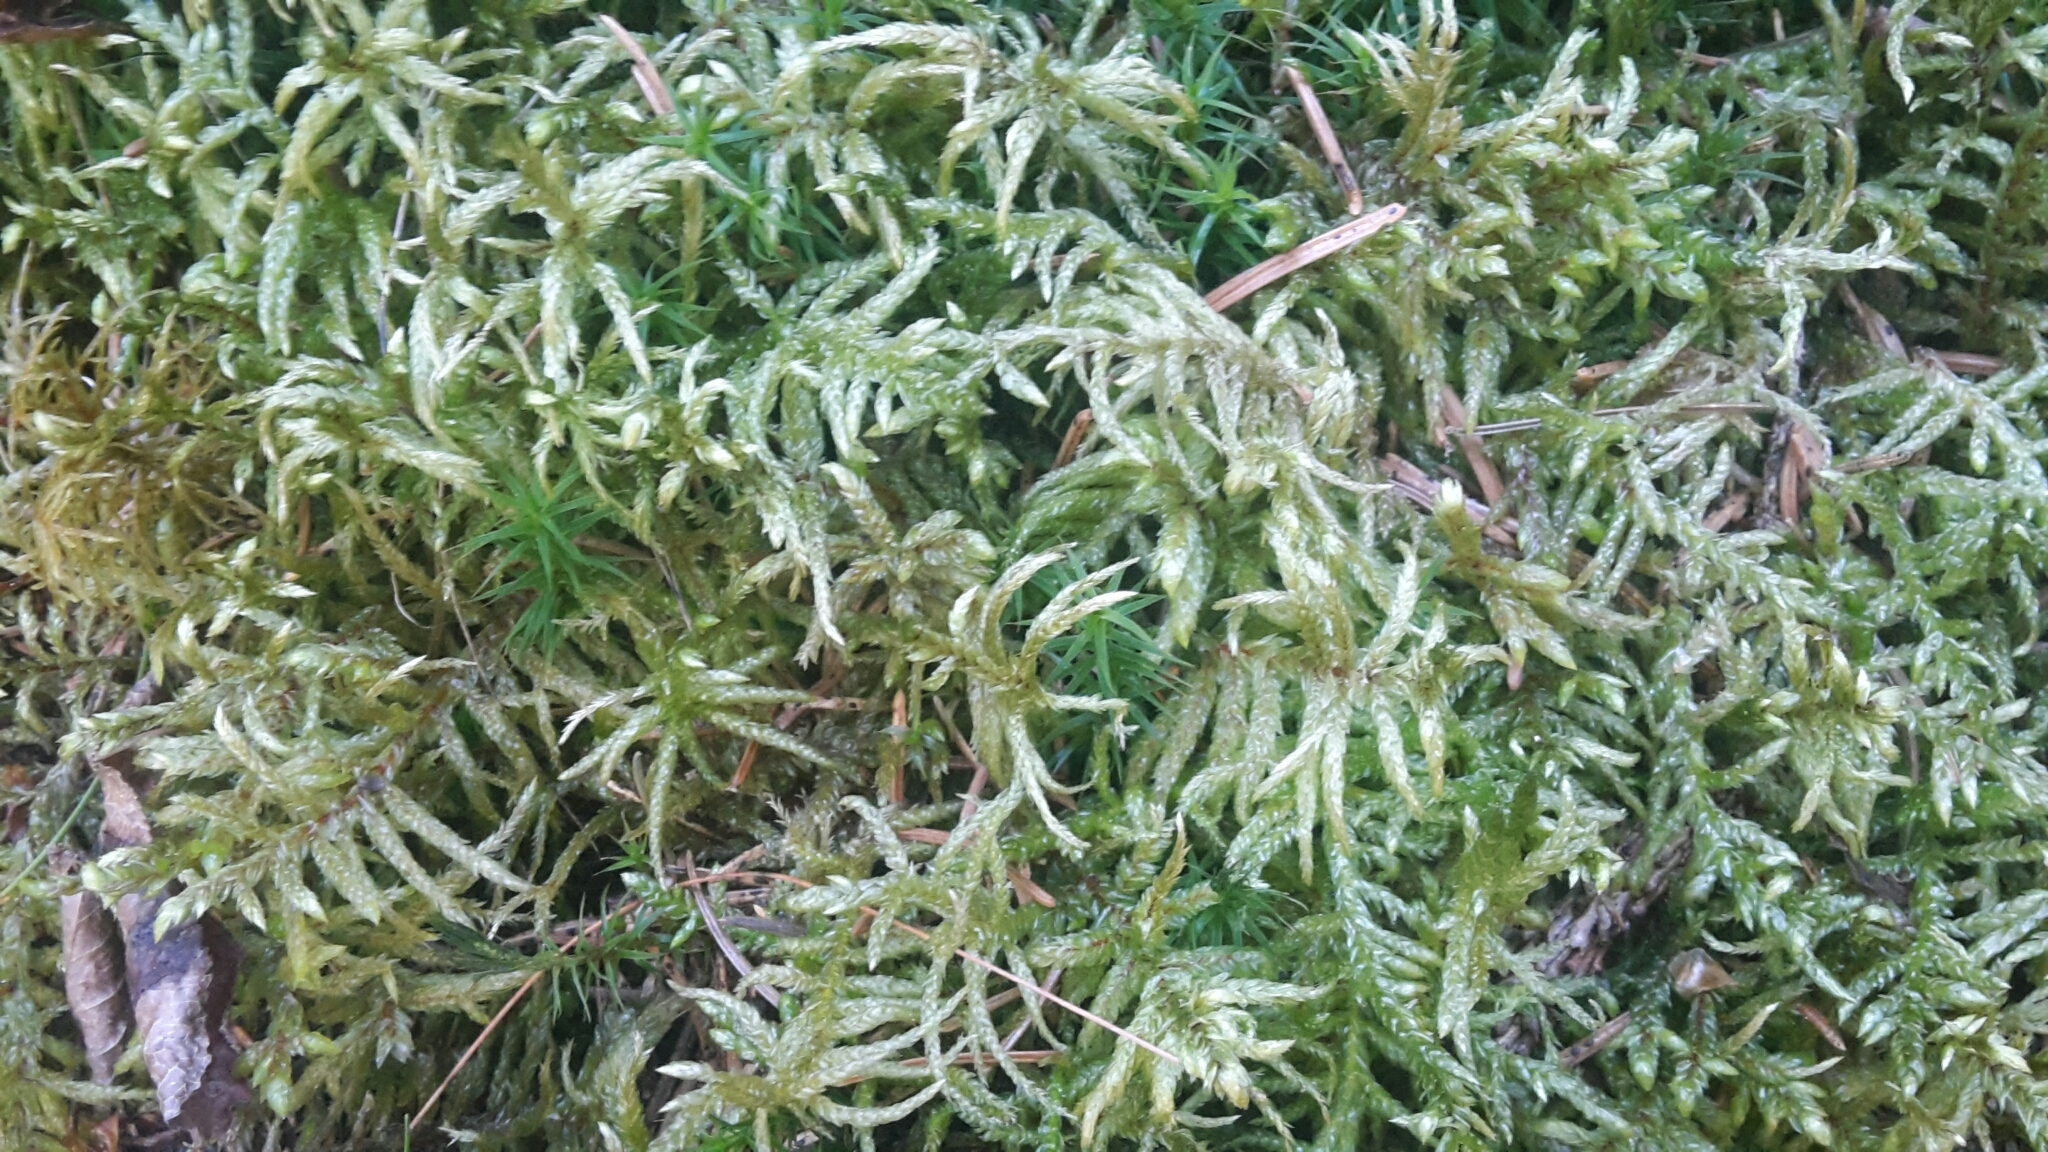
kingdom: Plantae
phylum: Bryophyta
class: Bryopsida
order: Hypnales
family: Hylocomiaceae
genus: Pleurozium
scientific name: Pleurozium schreberi
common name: Red-stemmed feather moss
